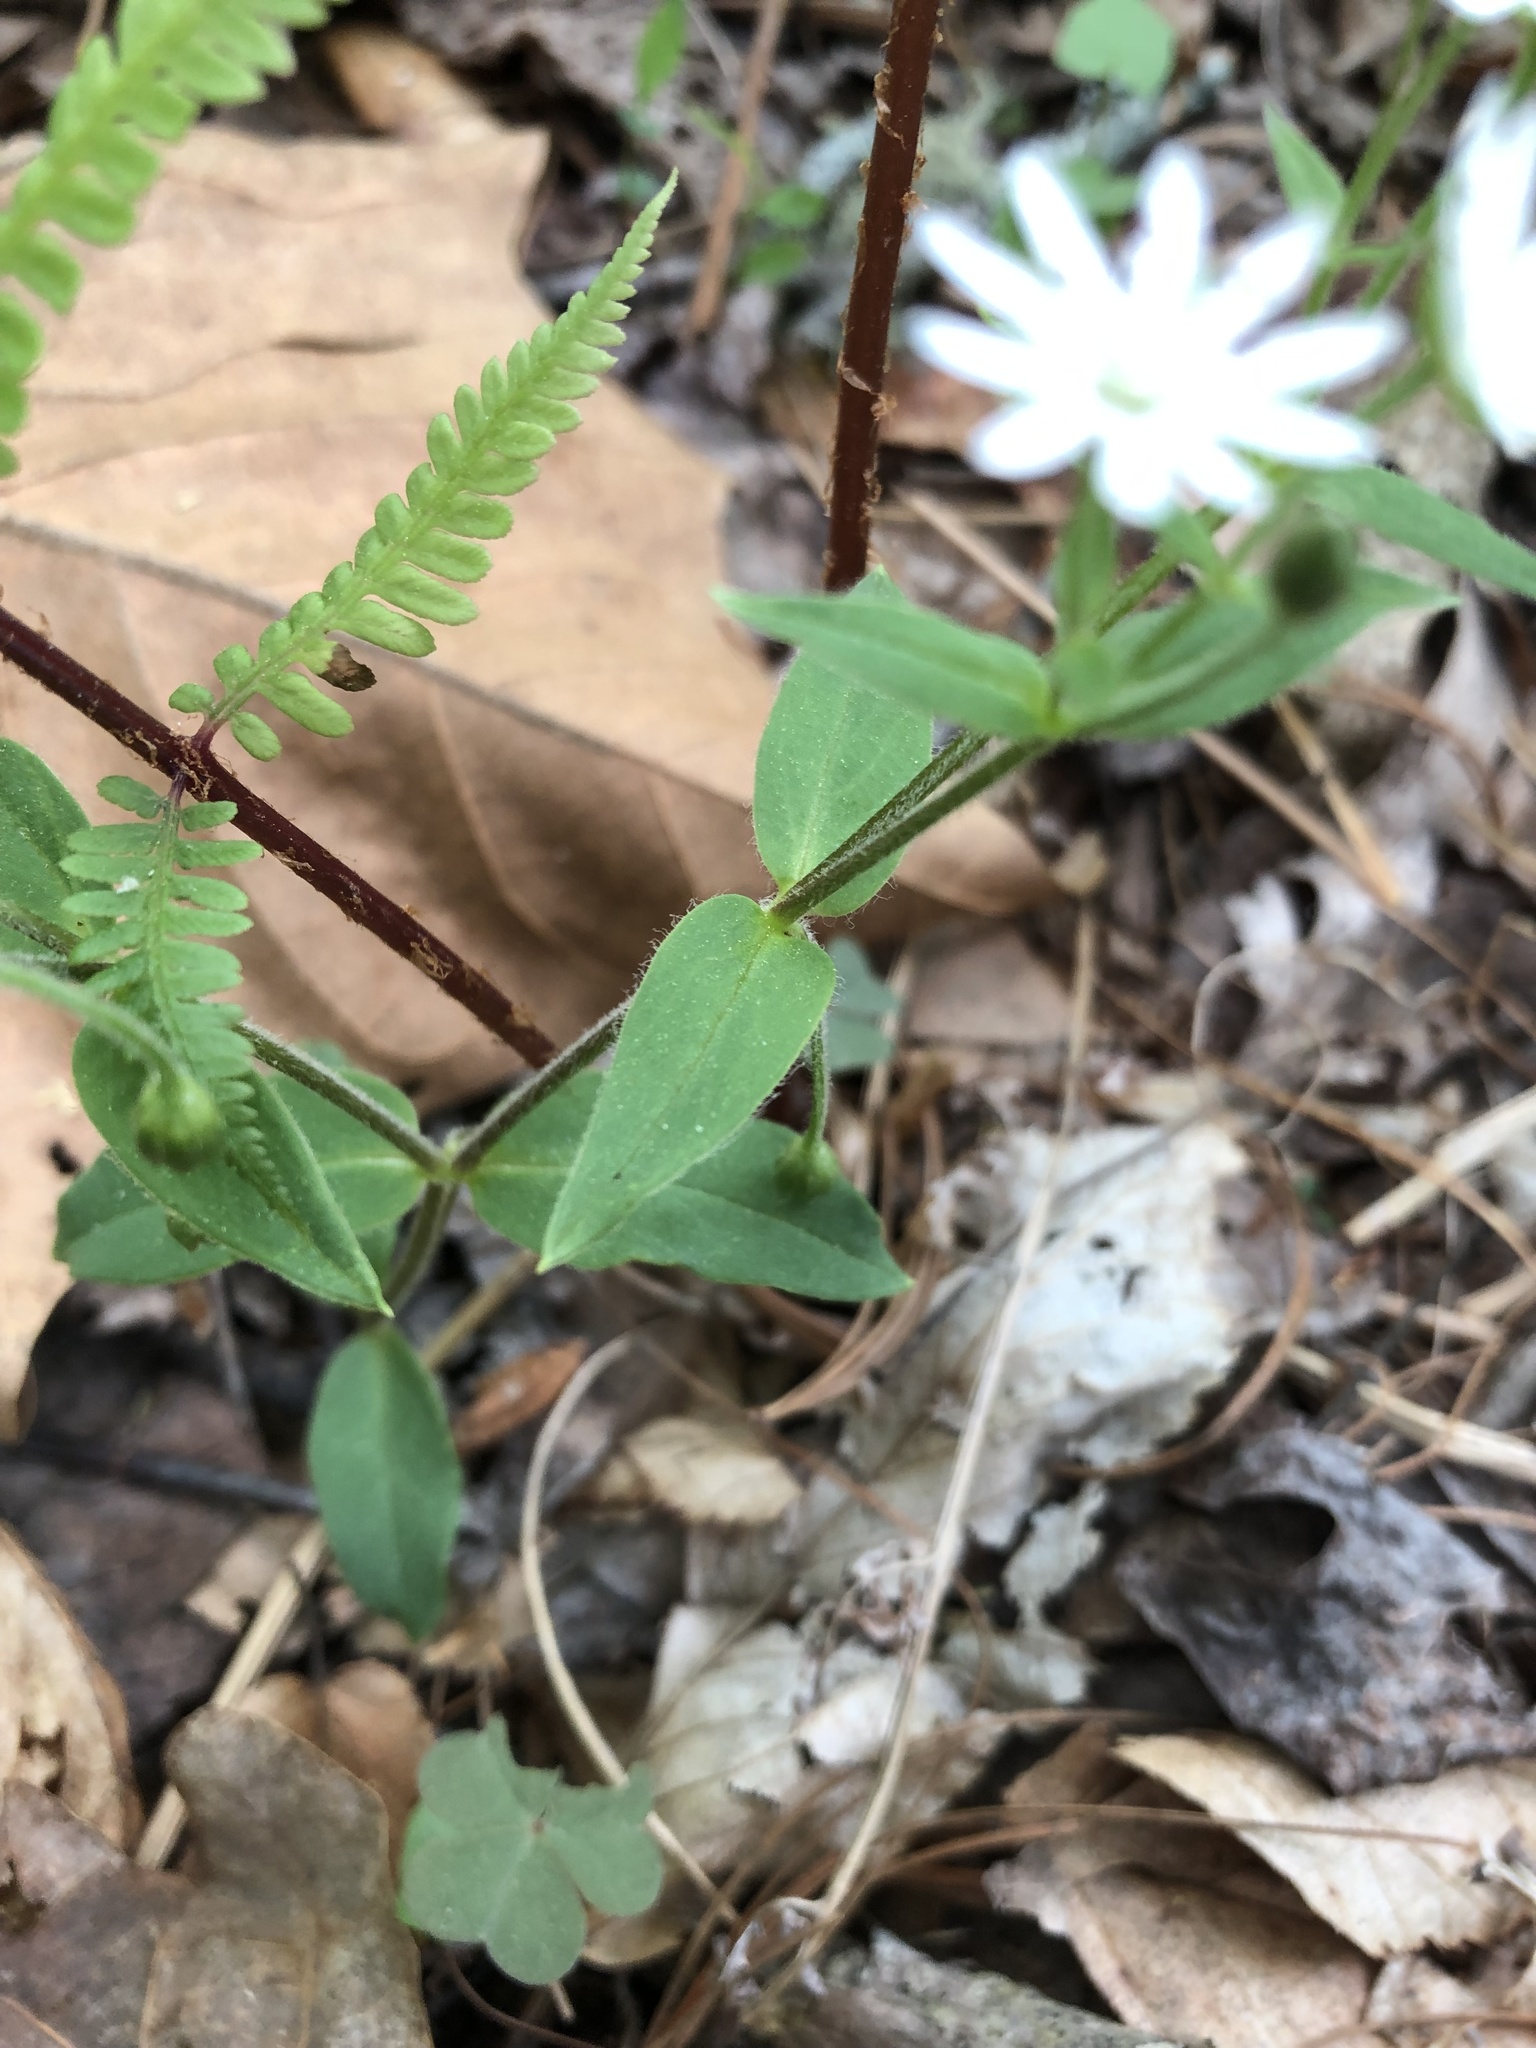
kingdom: Plantae
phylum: Tracheophyta
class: Magnoliopsida
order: Caryophyllales
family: Caryophyllaceae
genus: Stellaria
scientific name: Stellaria pubera
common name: Star chickweed
